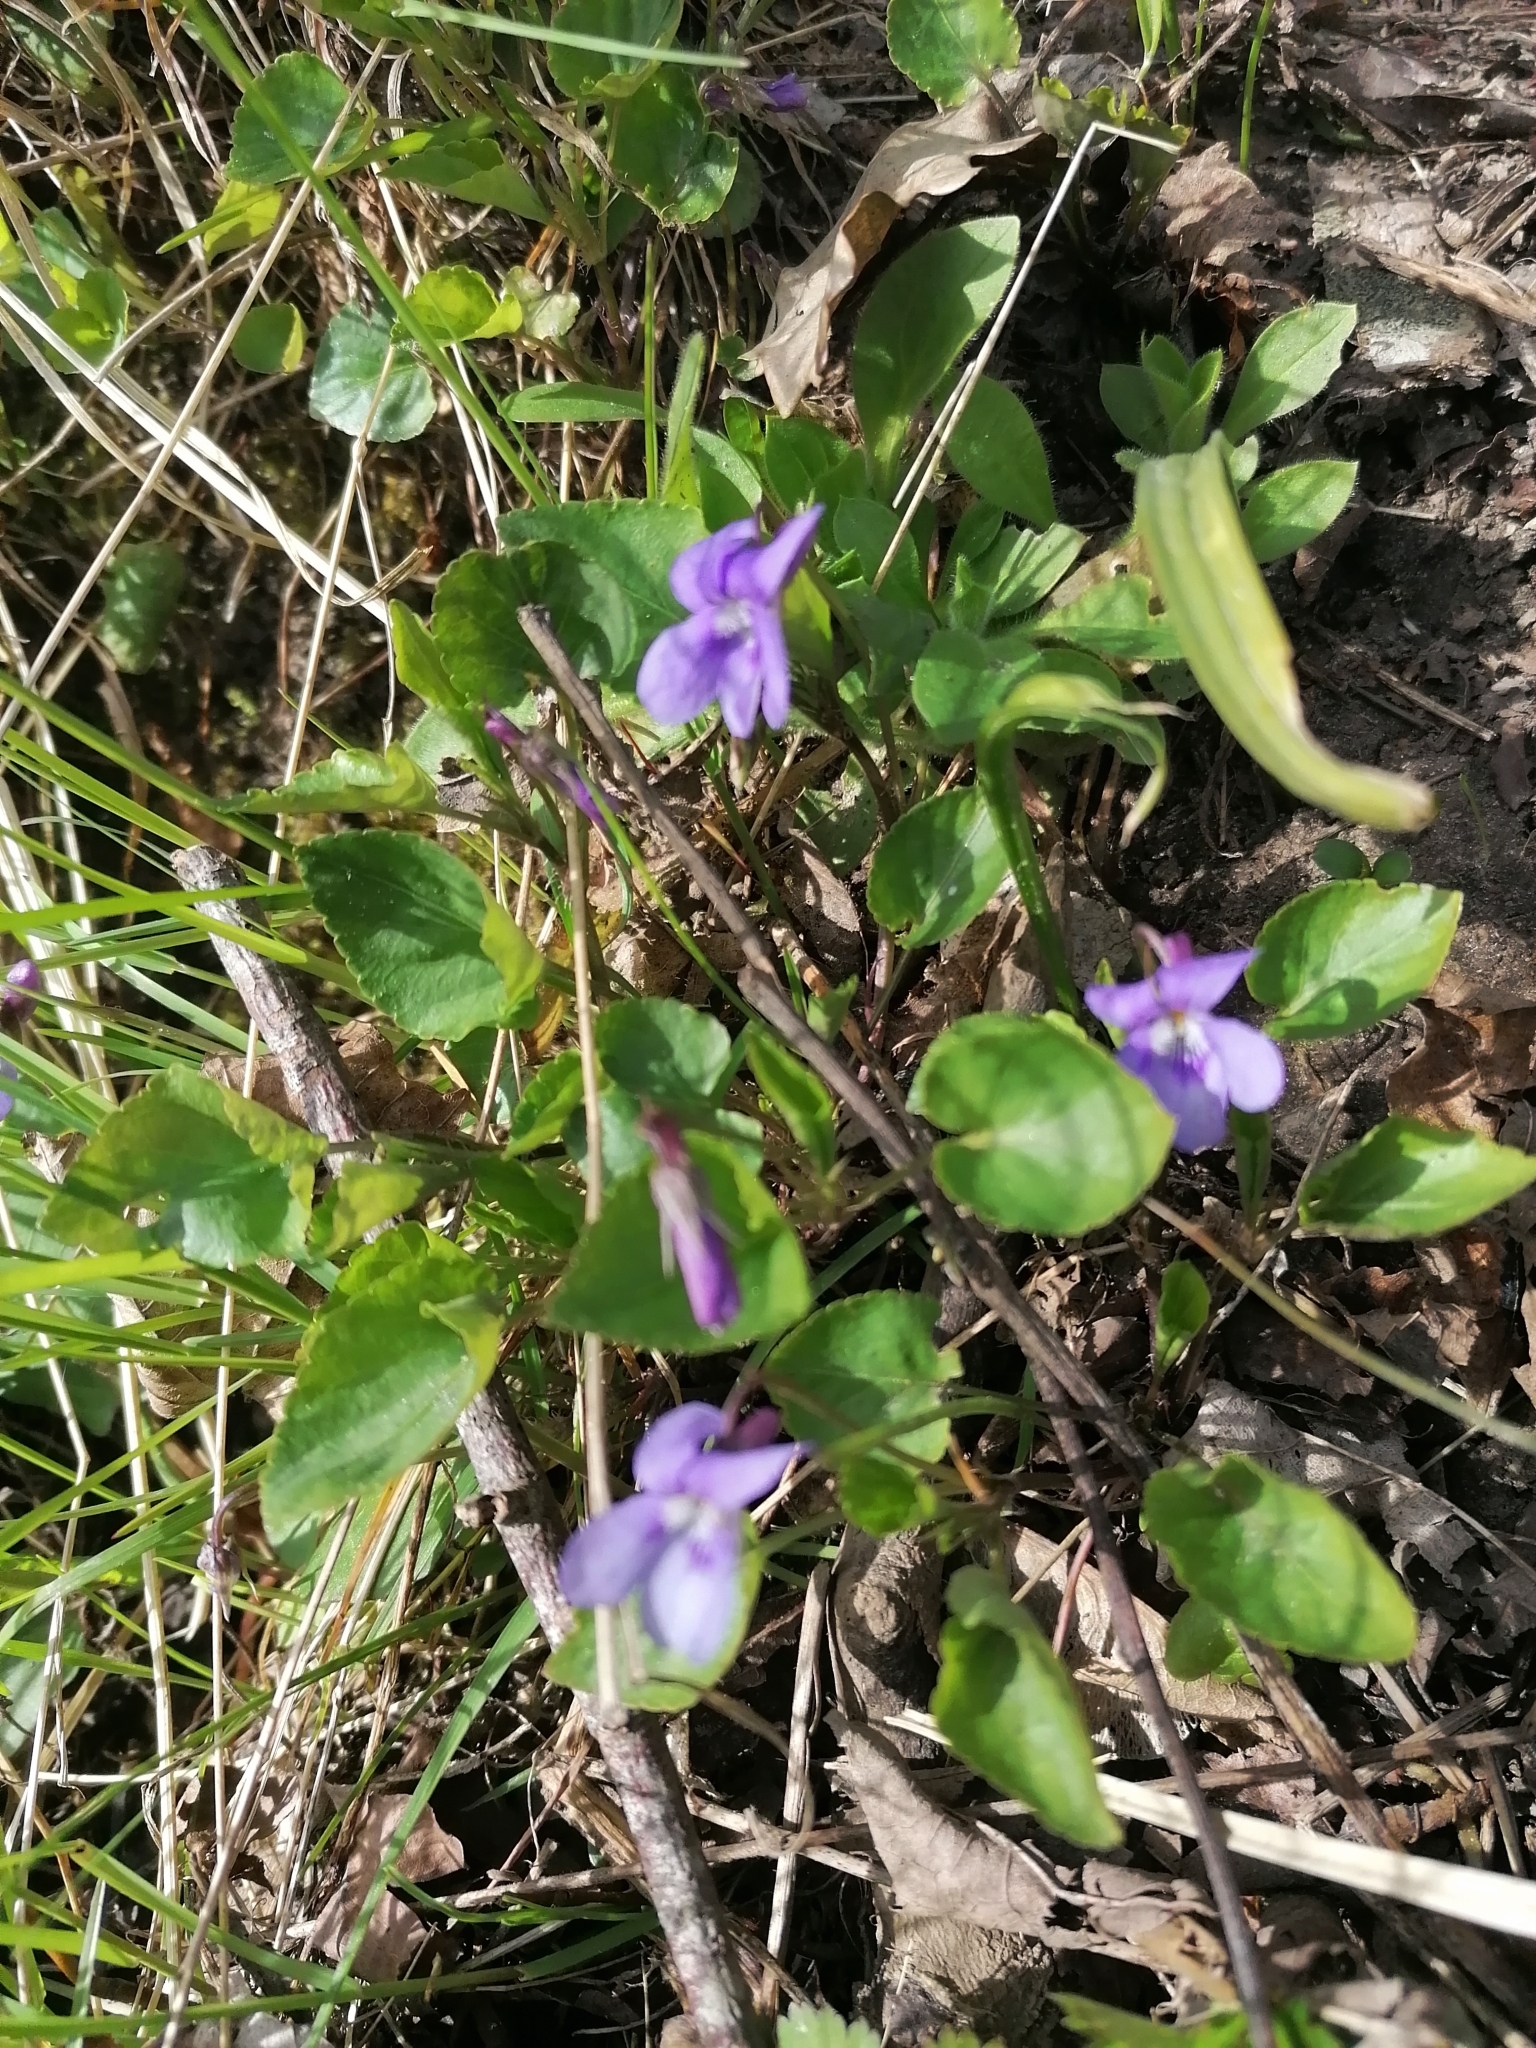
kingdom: Plantae
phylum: Tracheophyta
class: Magnoliopsida
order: Malpighiales
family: Violaceae
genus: Viola
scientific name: Viola reichenbachiana
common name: Early dog-violet
